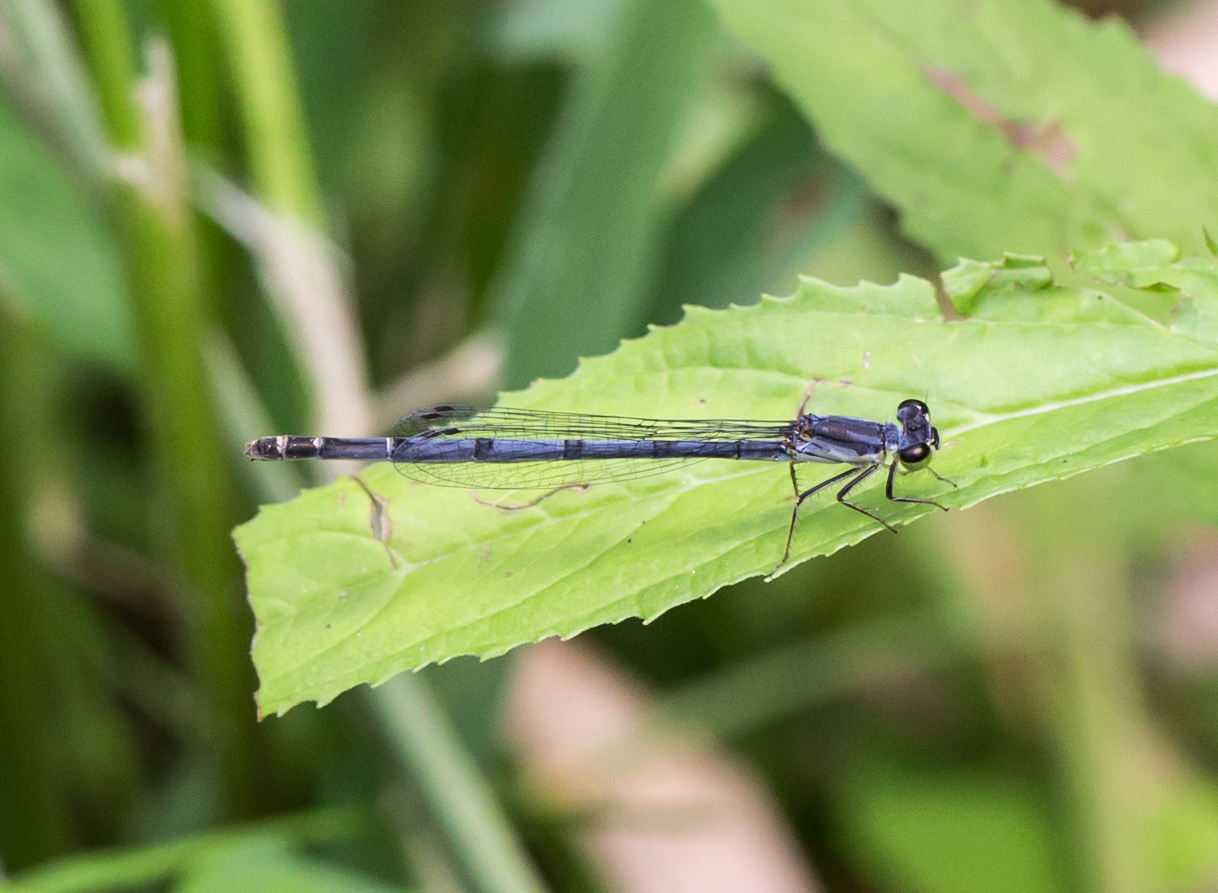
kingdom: Animalia
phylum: Arthropoda
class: Insecta
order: Odonata
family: Coenagrionidae
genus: Ischnura
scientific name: Ischnura posita
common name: Fragile forktail
